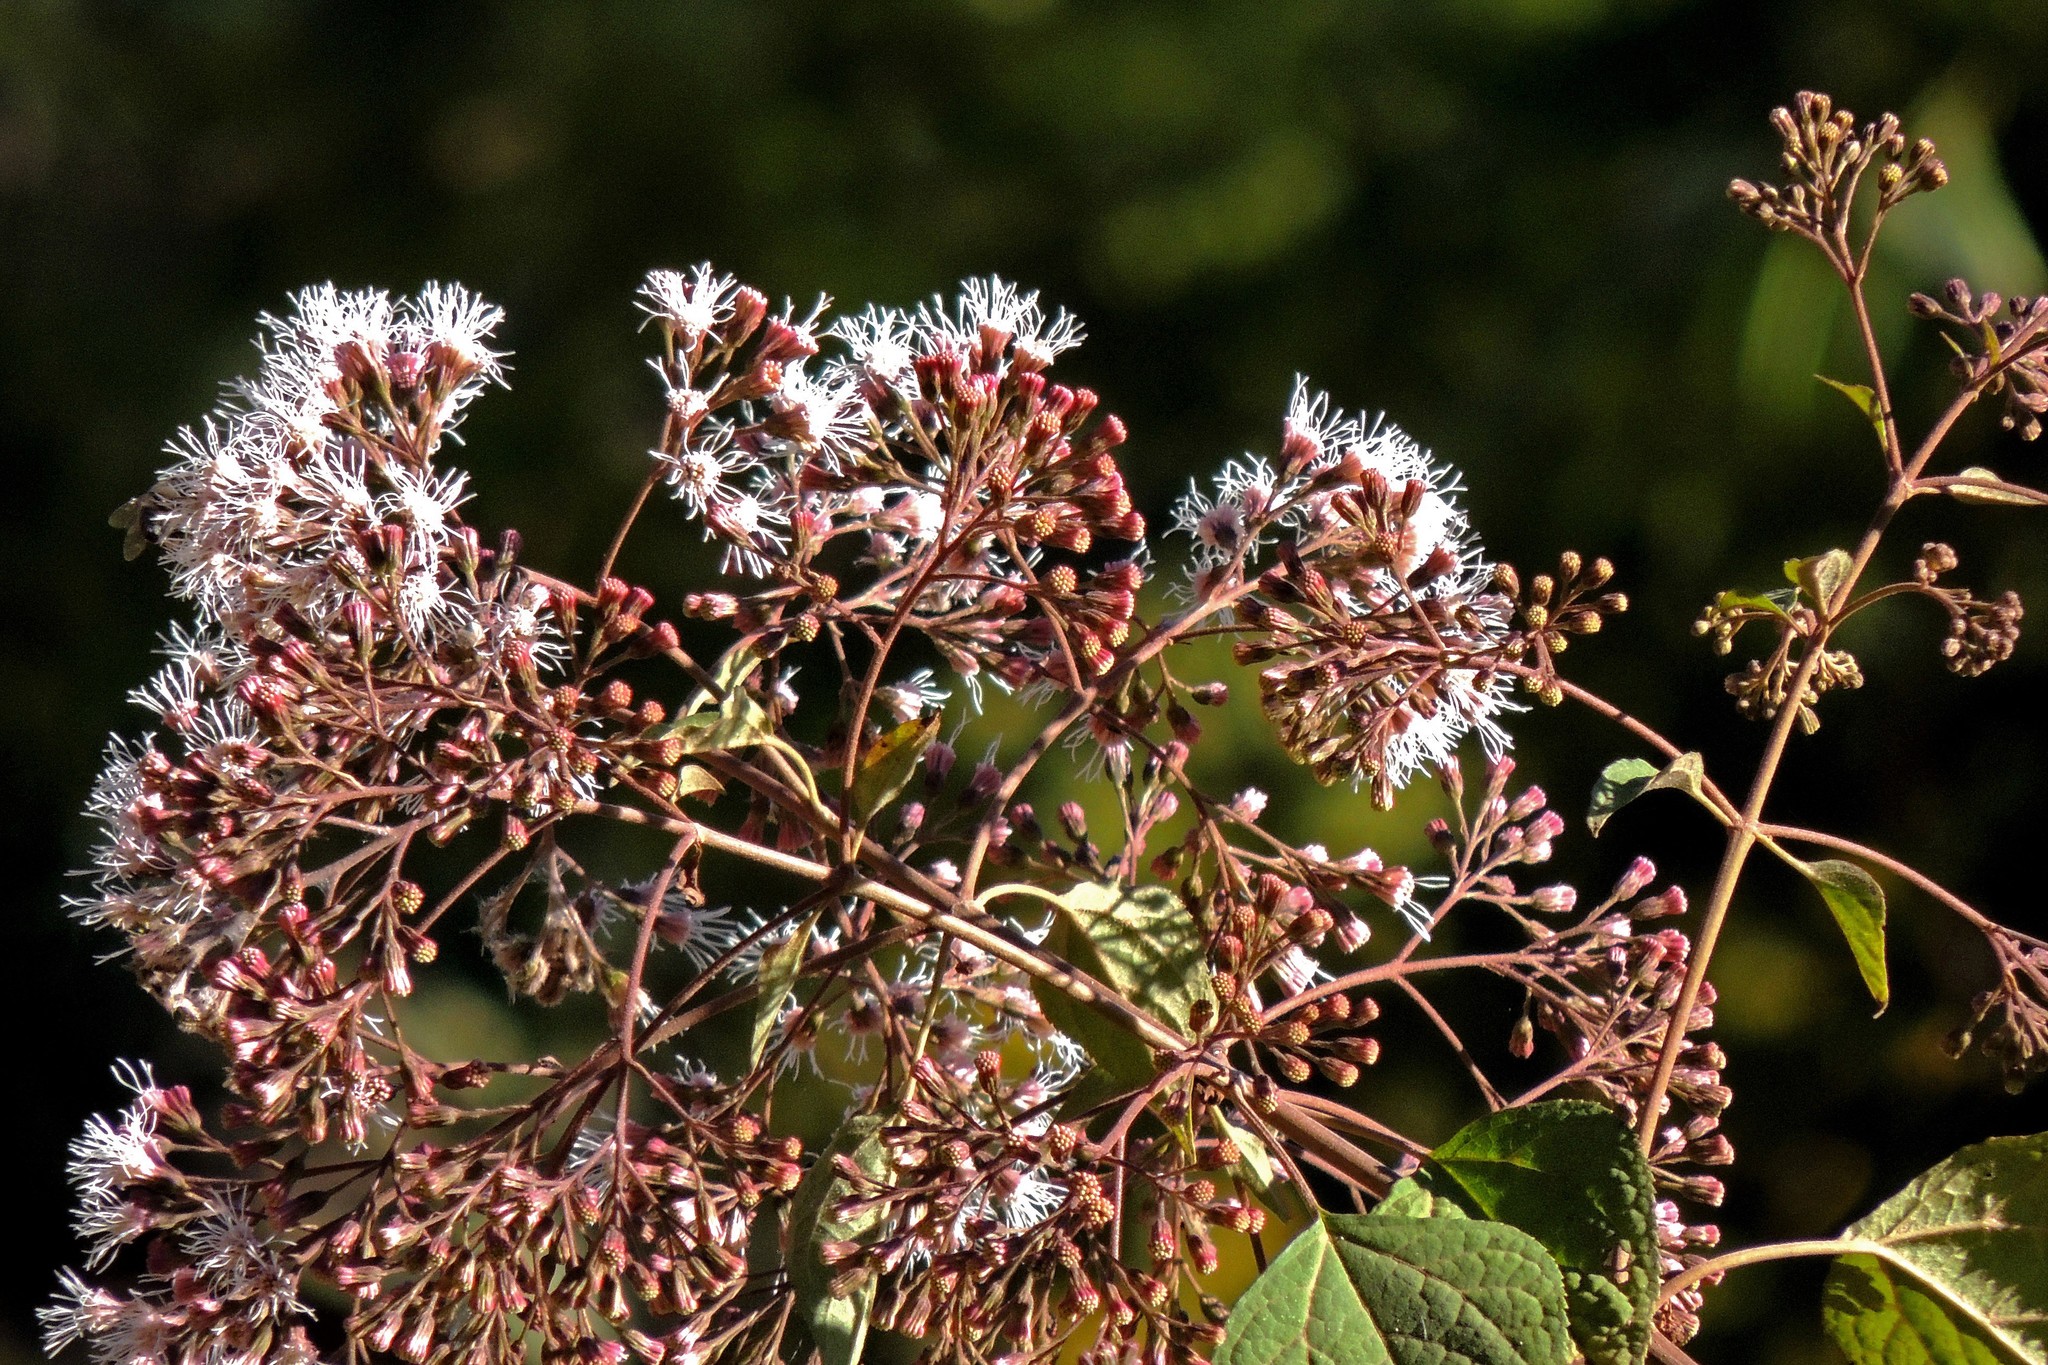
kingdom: Plantae
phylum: Tracheophyta
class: Magnoliopsida
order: Asterales
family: Asteraceae
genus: Kaunia
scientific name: Kaunia saltensis
